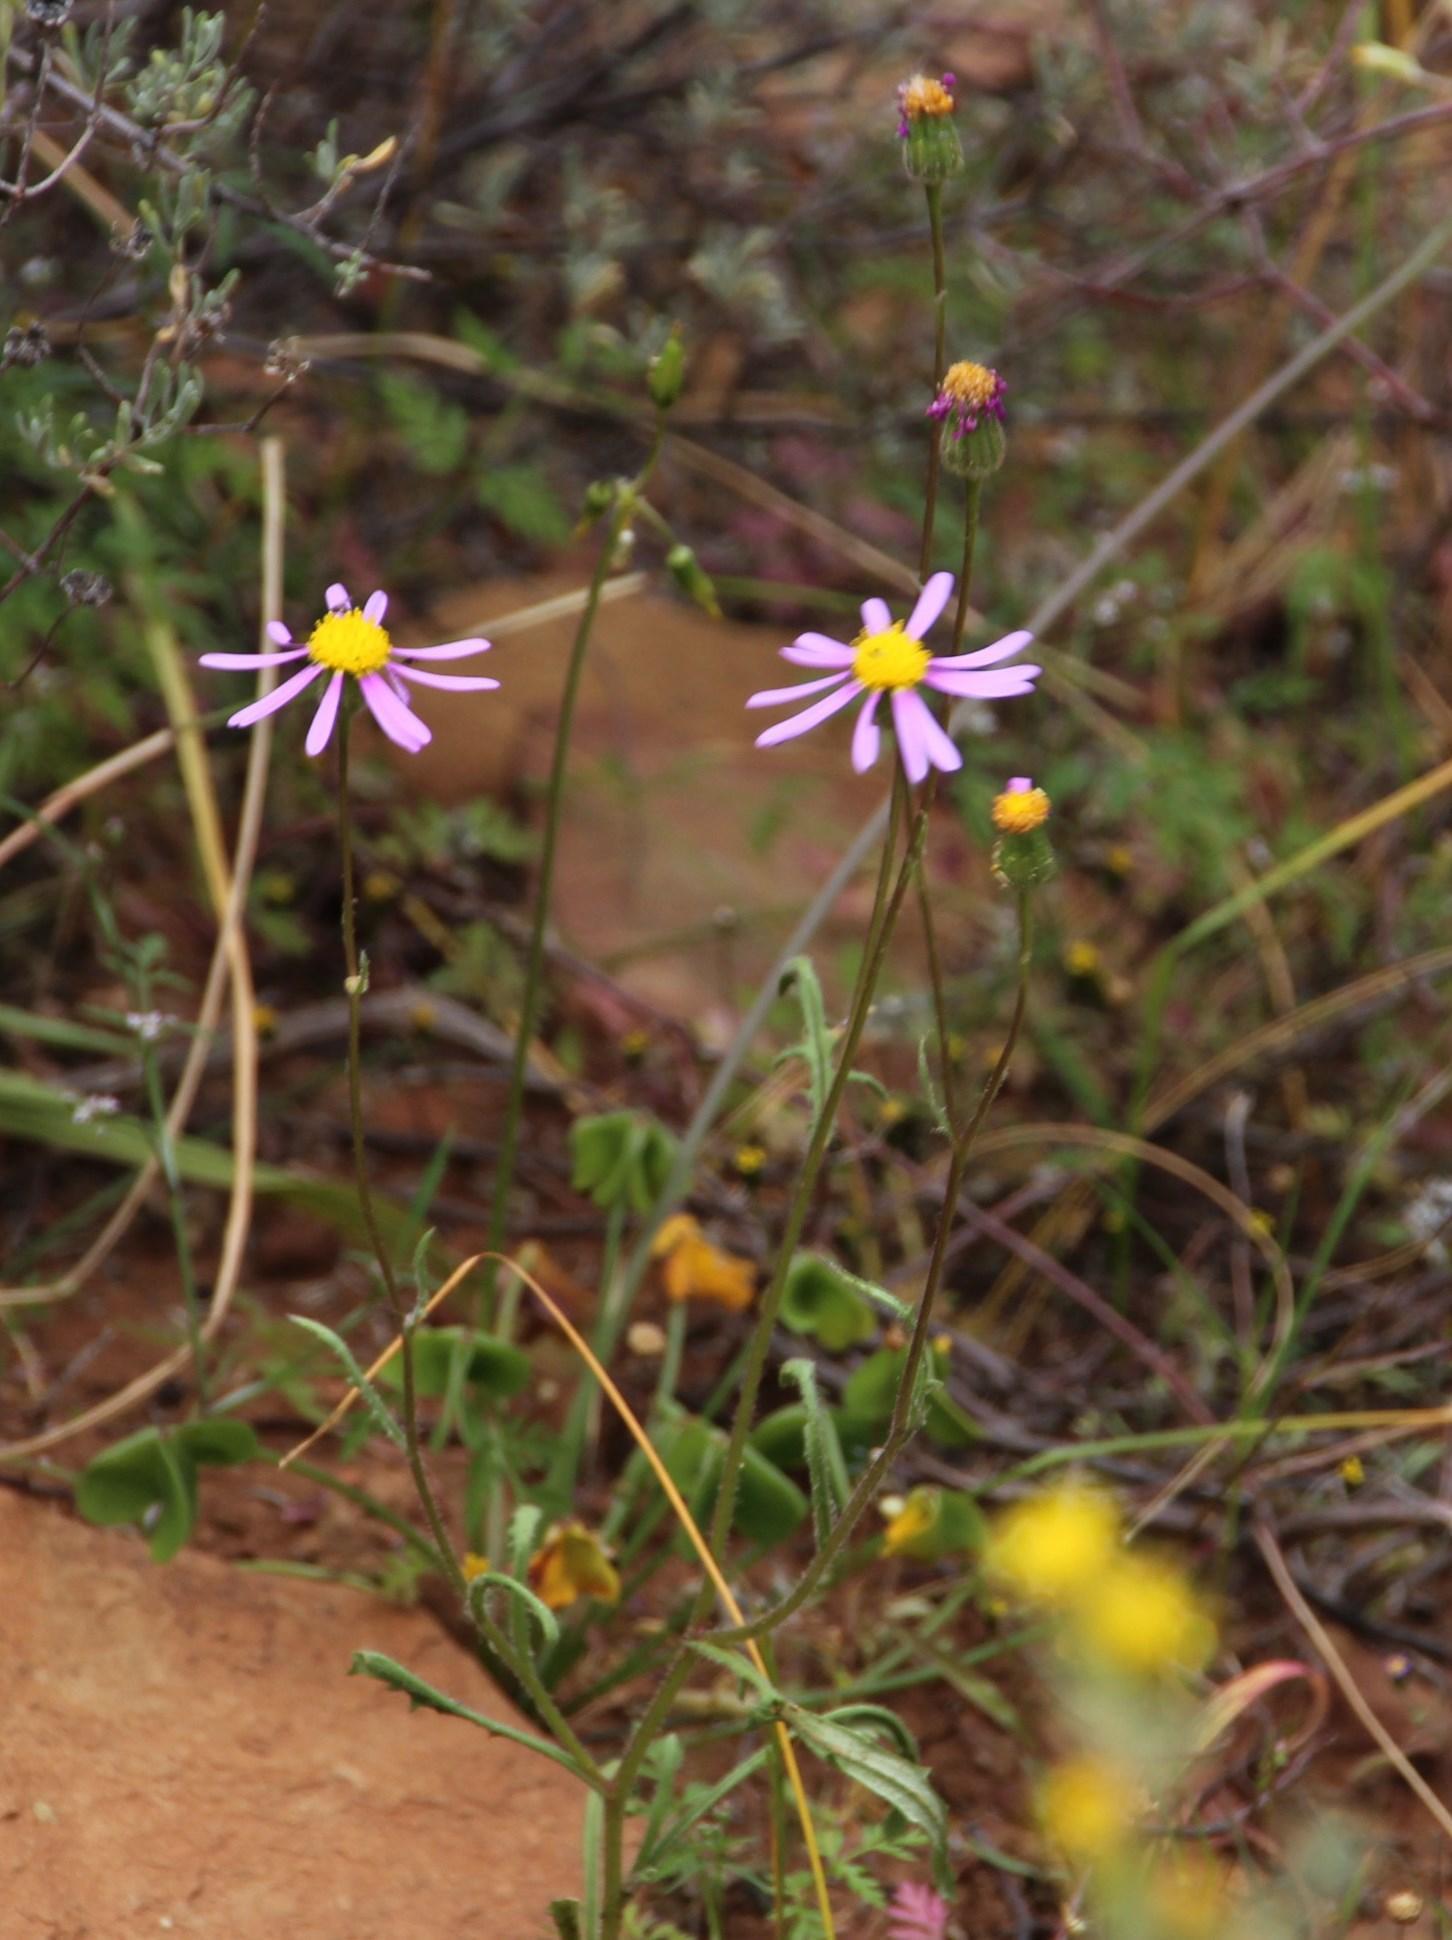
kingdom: Plantae
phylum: Tracheophyta
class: Magnoliopsida
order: Asterales
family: Asteraceae
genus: Senecio
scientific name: Senecio arenarius
